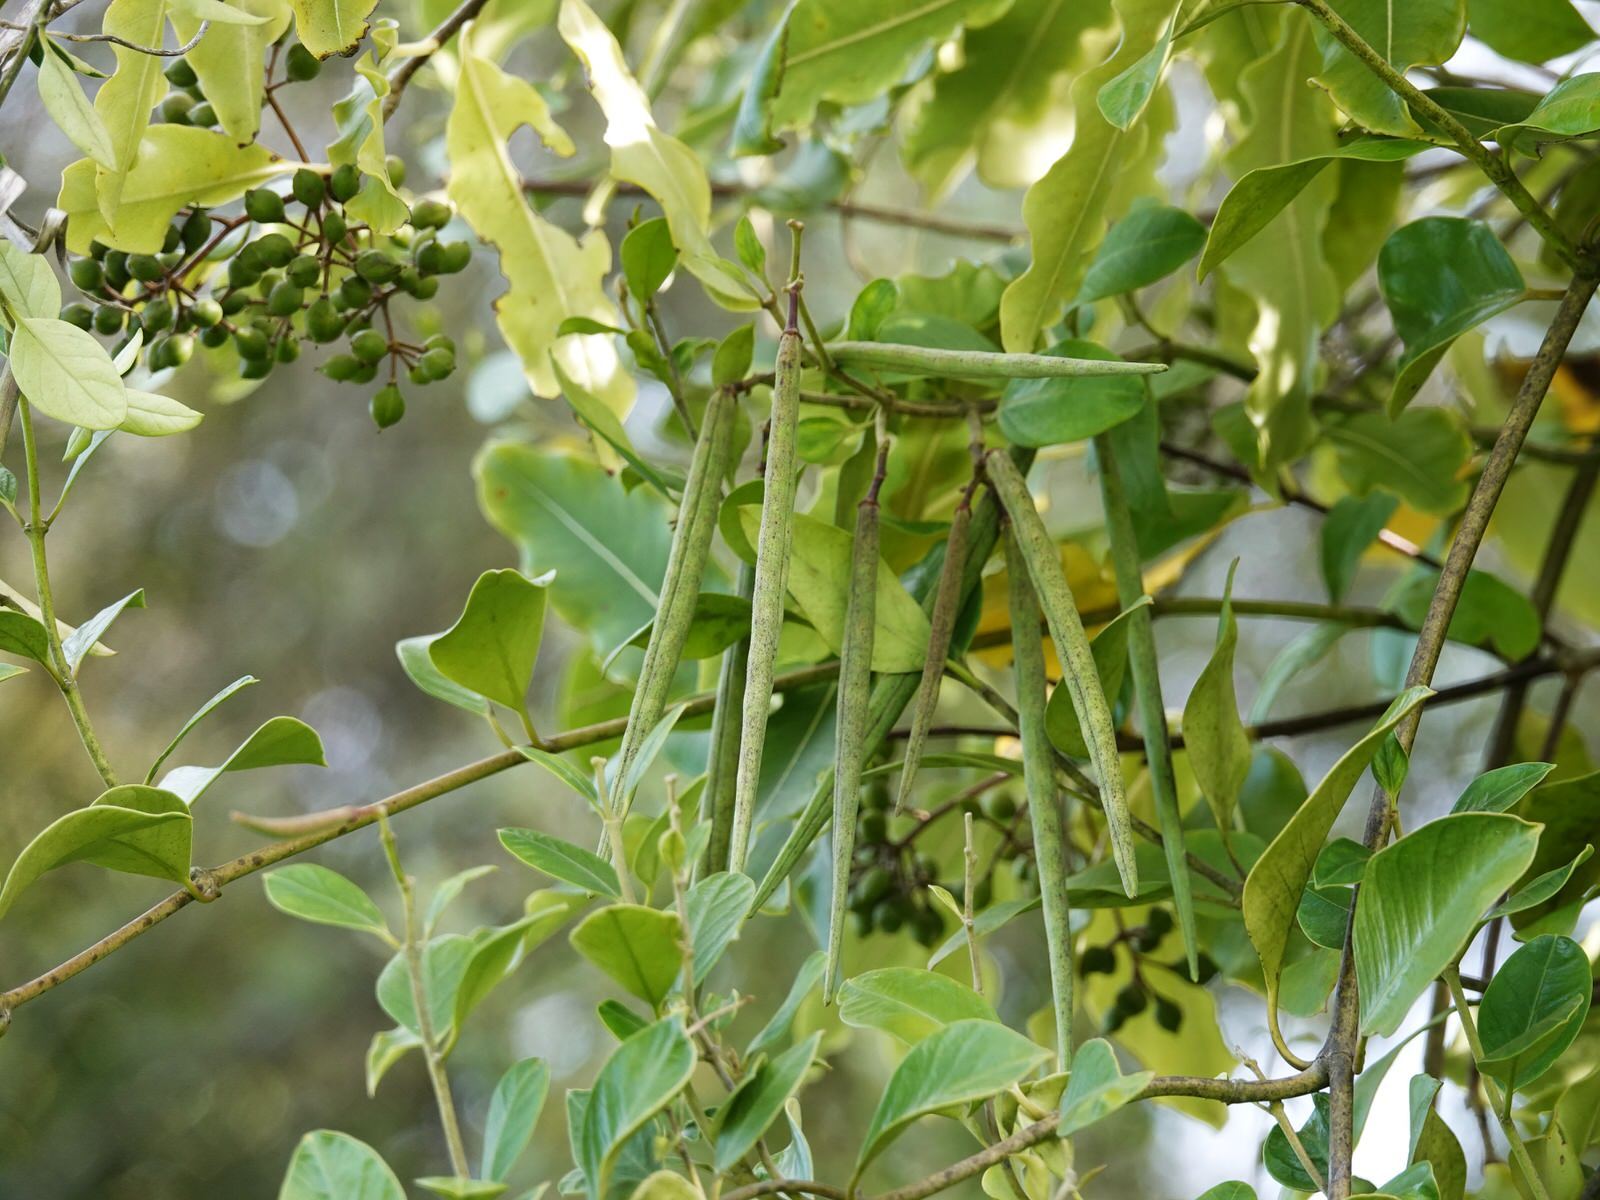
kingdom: Plantae
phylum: Tracheophyta
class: Magnoliopsida
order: Gentianales
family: Apocynaceae
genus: Parsonsia
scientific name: Parsonsia heterophylla
